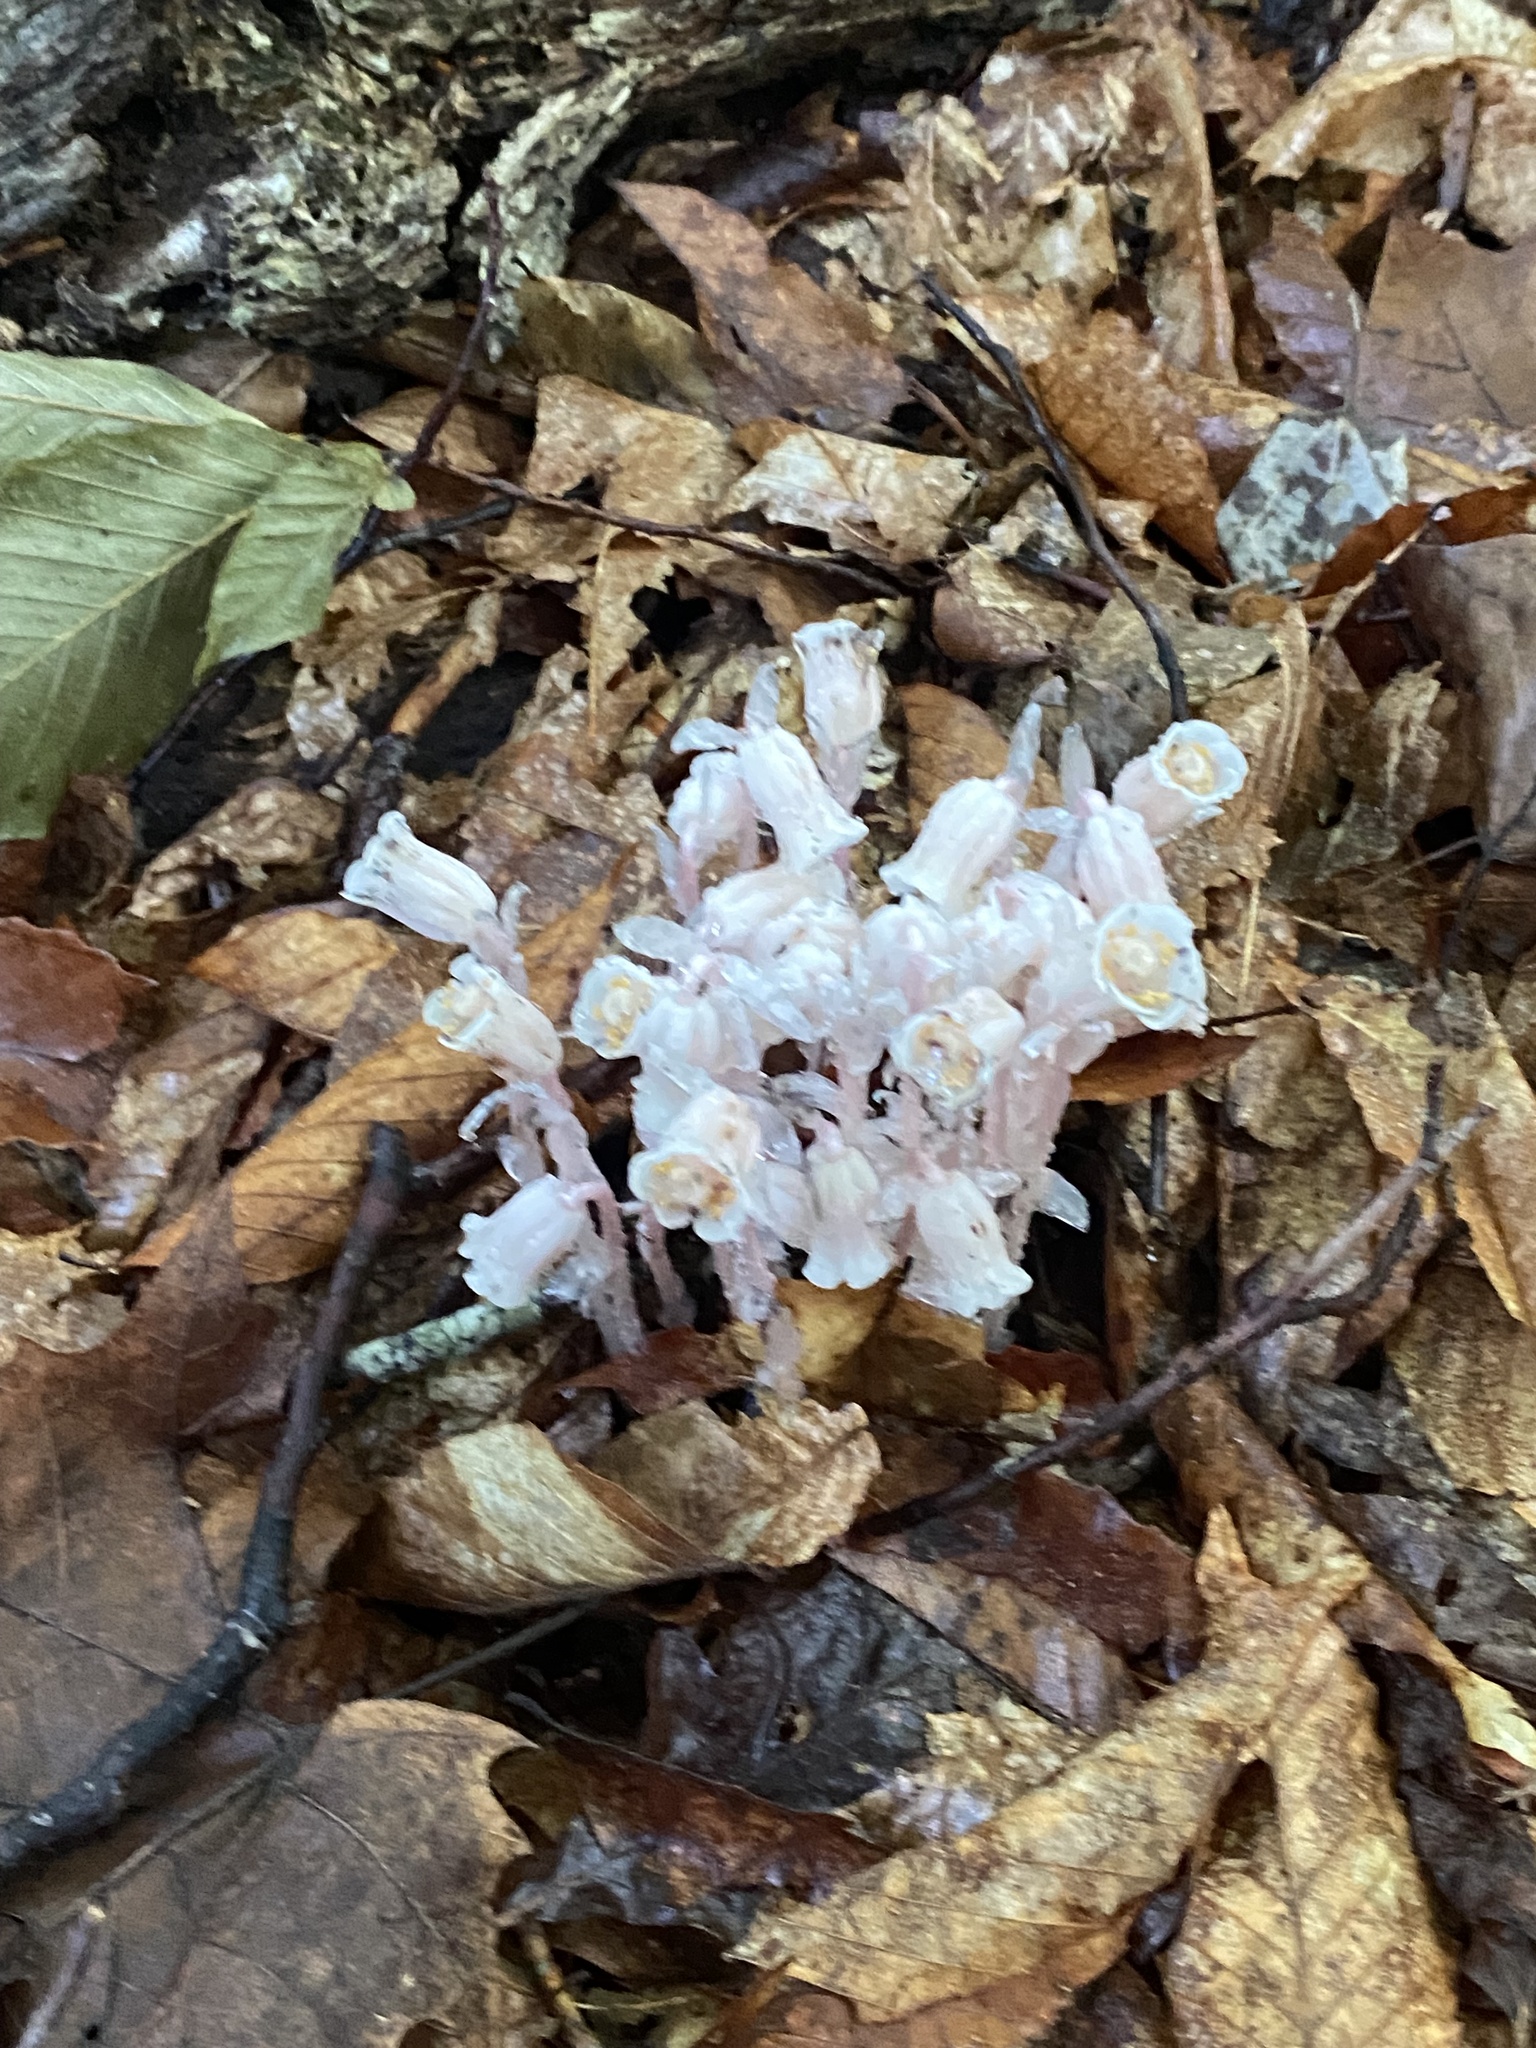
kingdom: Plantae
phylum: Tracheophyta
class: Magnoliopsida
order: Ericales
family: Ericaceae
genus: Monotropa
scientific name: Monotropa uniflora
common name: Convulsion root
